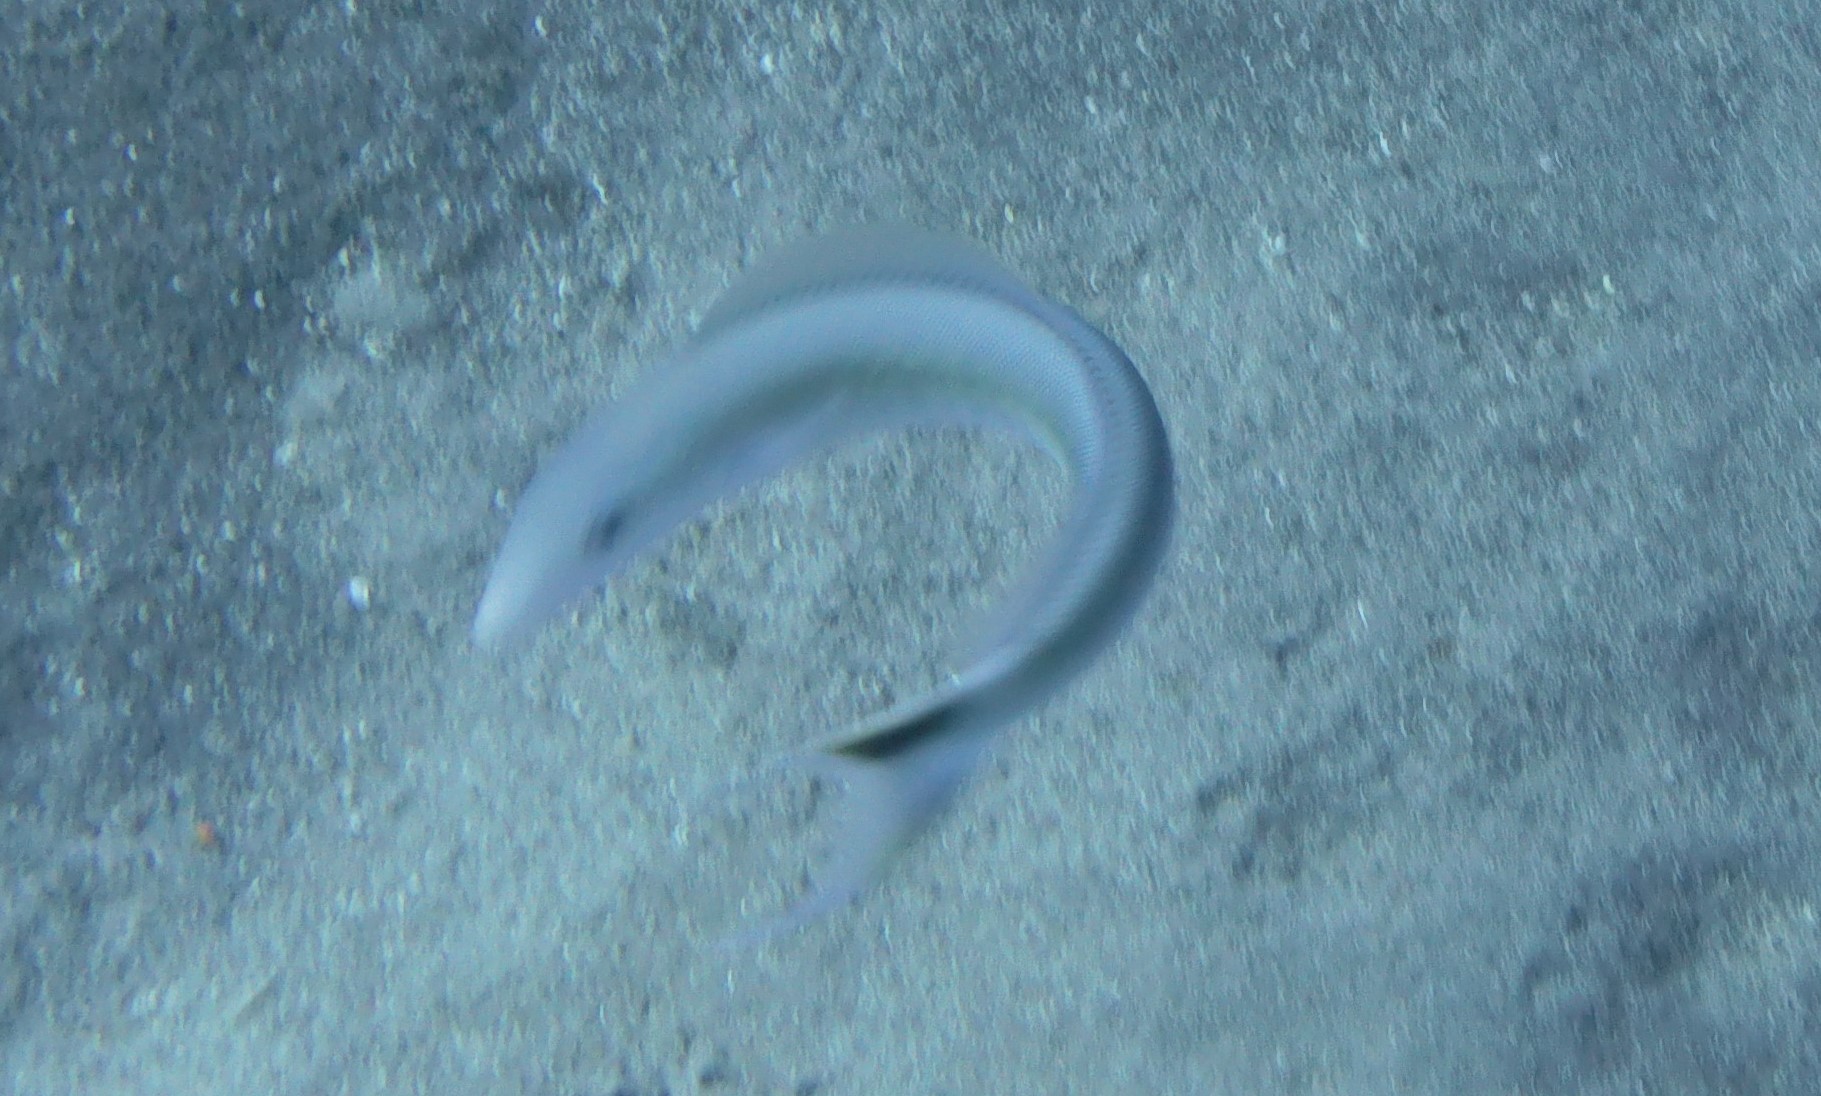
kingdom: Animalia
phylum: Chordata
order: Perciformes
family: Malacanthidae
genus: Malacanthus
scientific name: Malacanthus plumieri
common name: Sand tilefish
